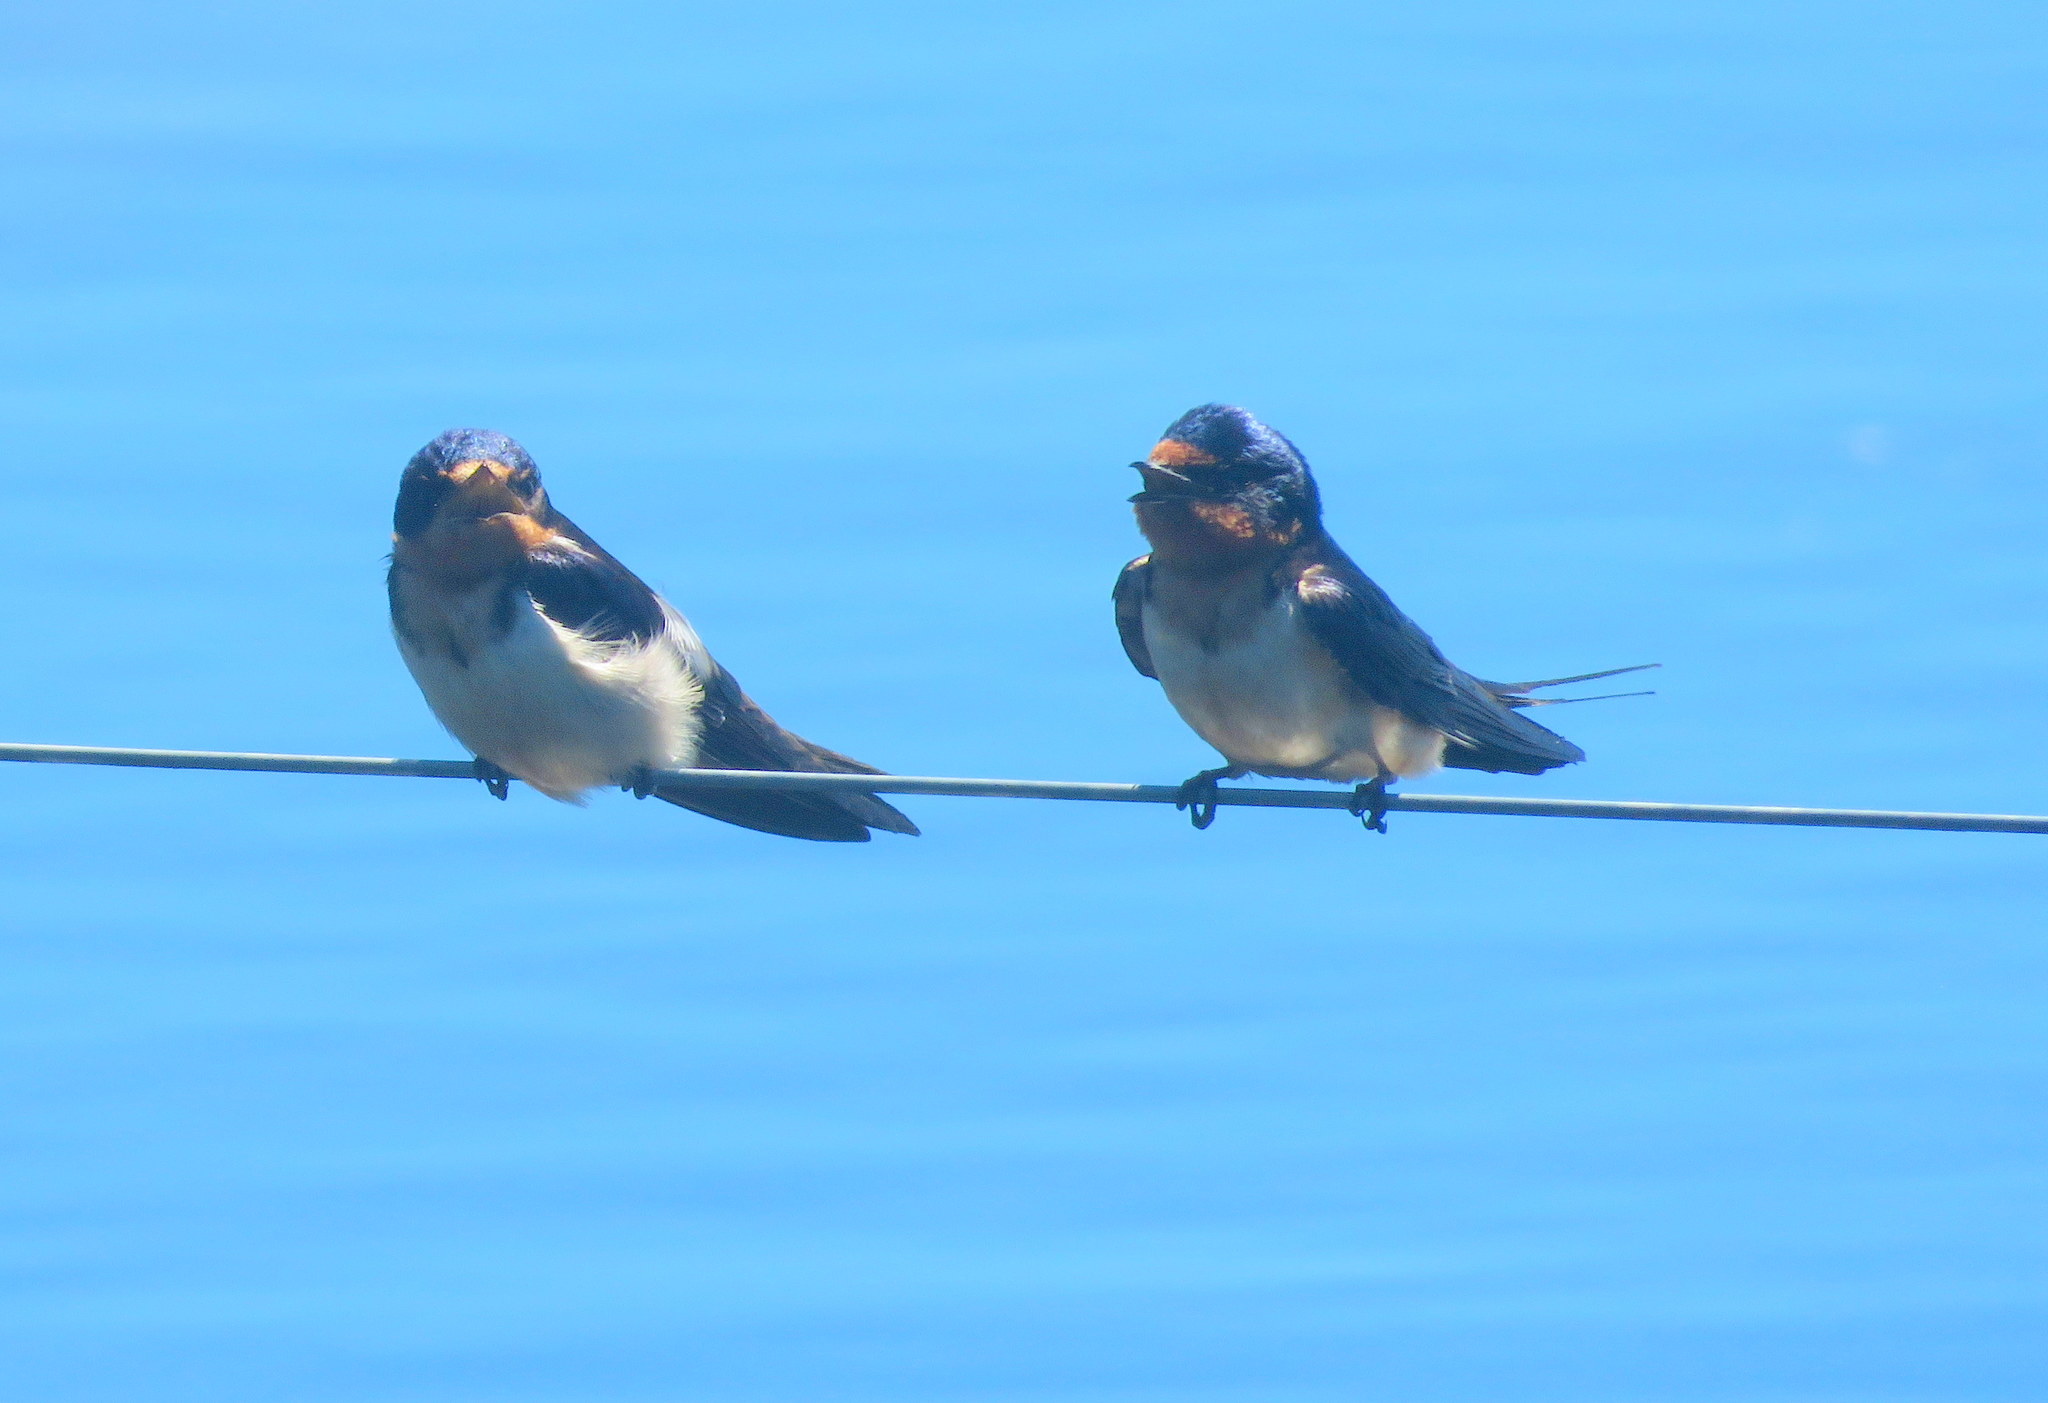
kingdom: Animalia
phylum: Chordata
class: Aves
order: Passeriformes
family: Hirundinidae
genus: Hirundo
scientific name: Hirundo rustica
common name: Barn swallow
